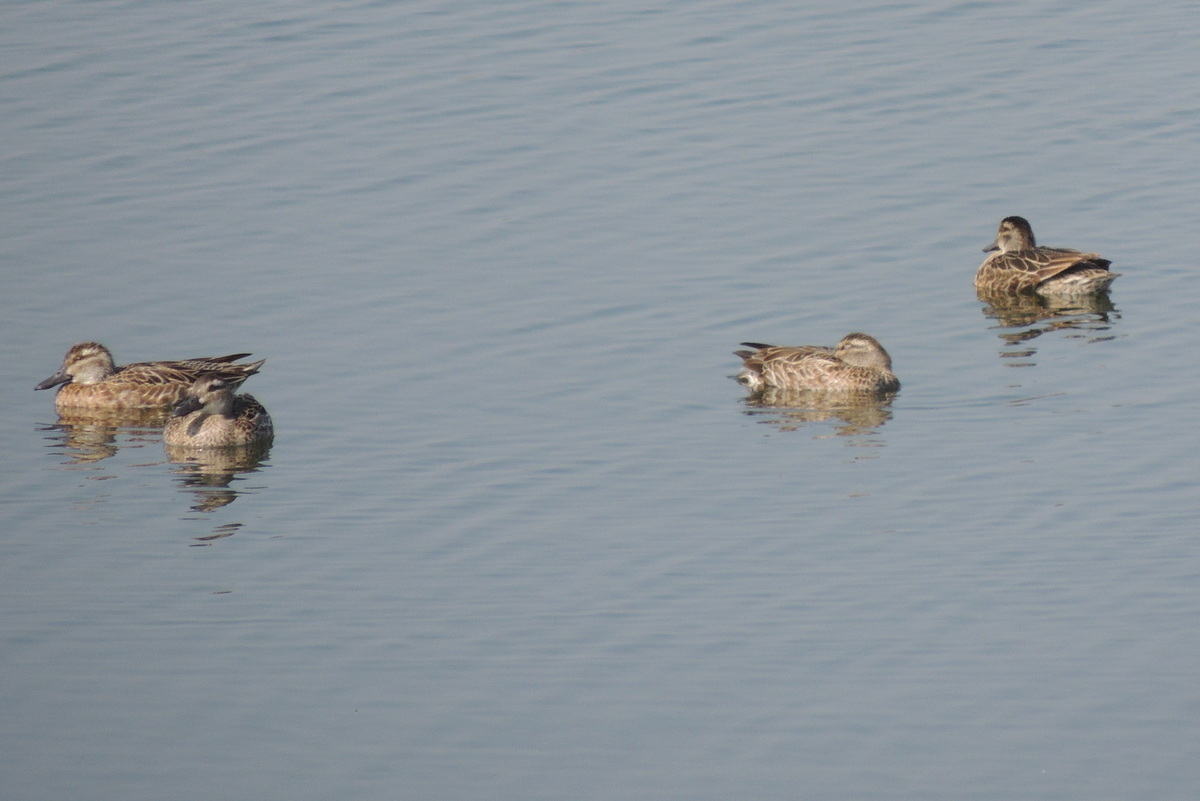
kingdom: Animalia
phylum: Chordata
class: Aves
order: Anseriformes
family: Anatidae
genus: Spatula
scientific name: Spatula querquedula
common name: Garganey
